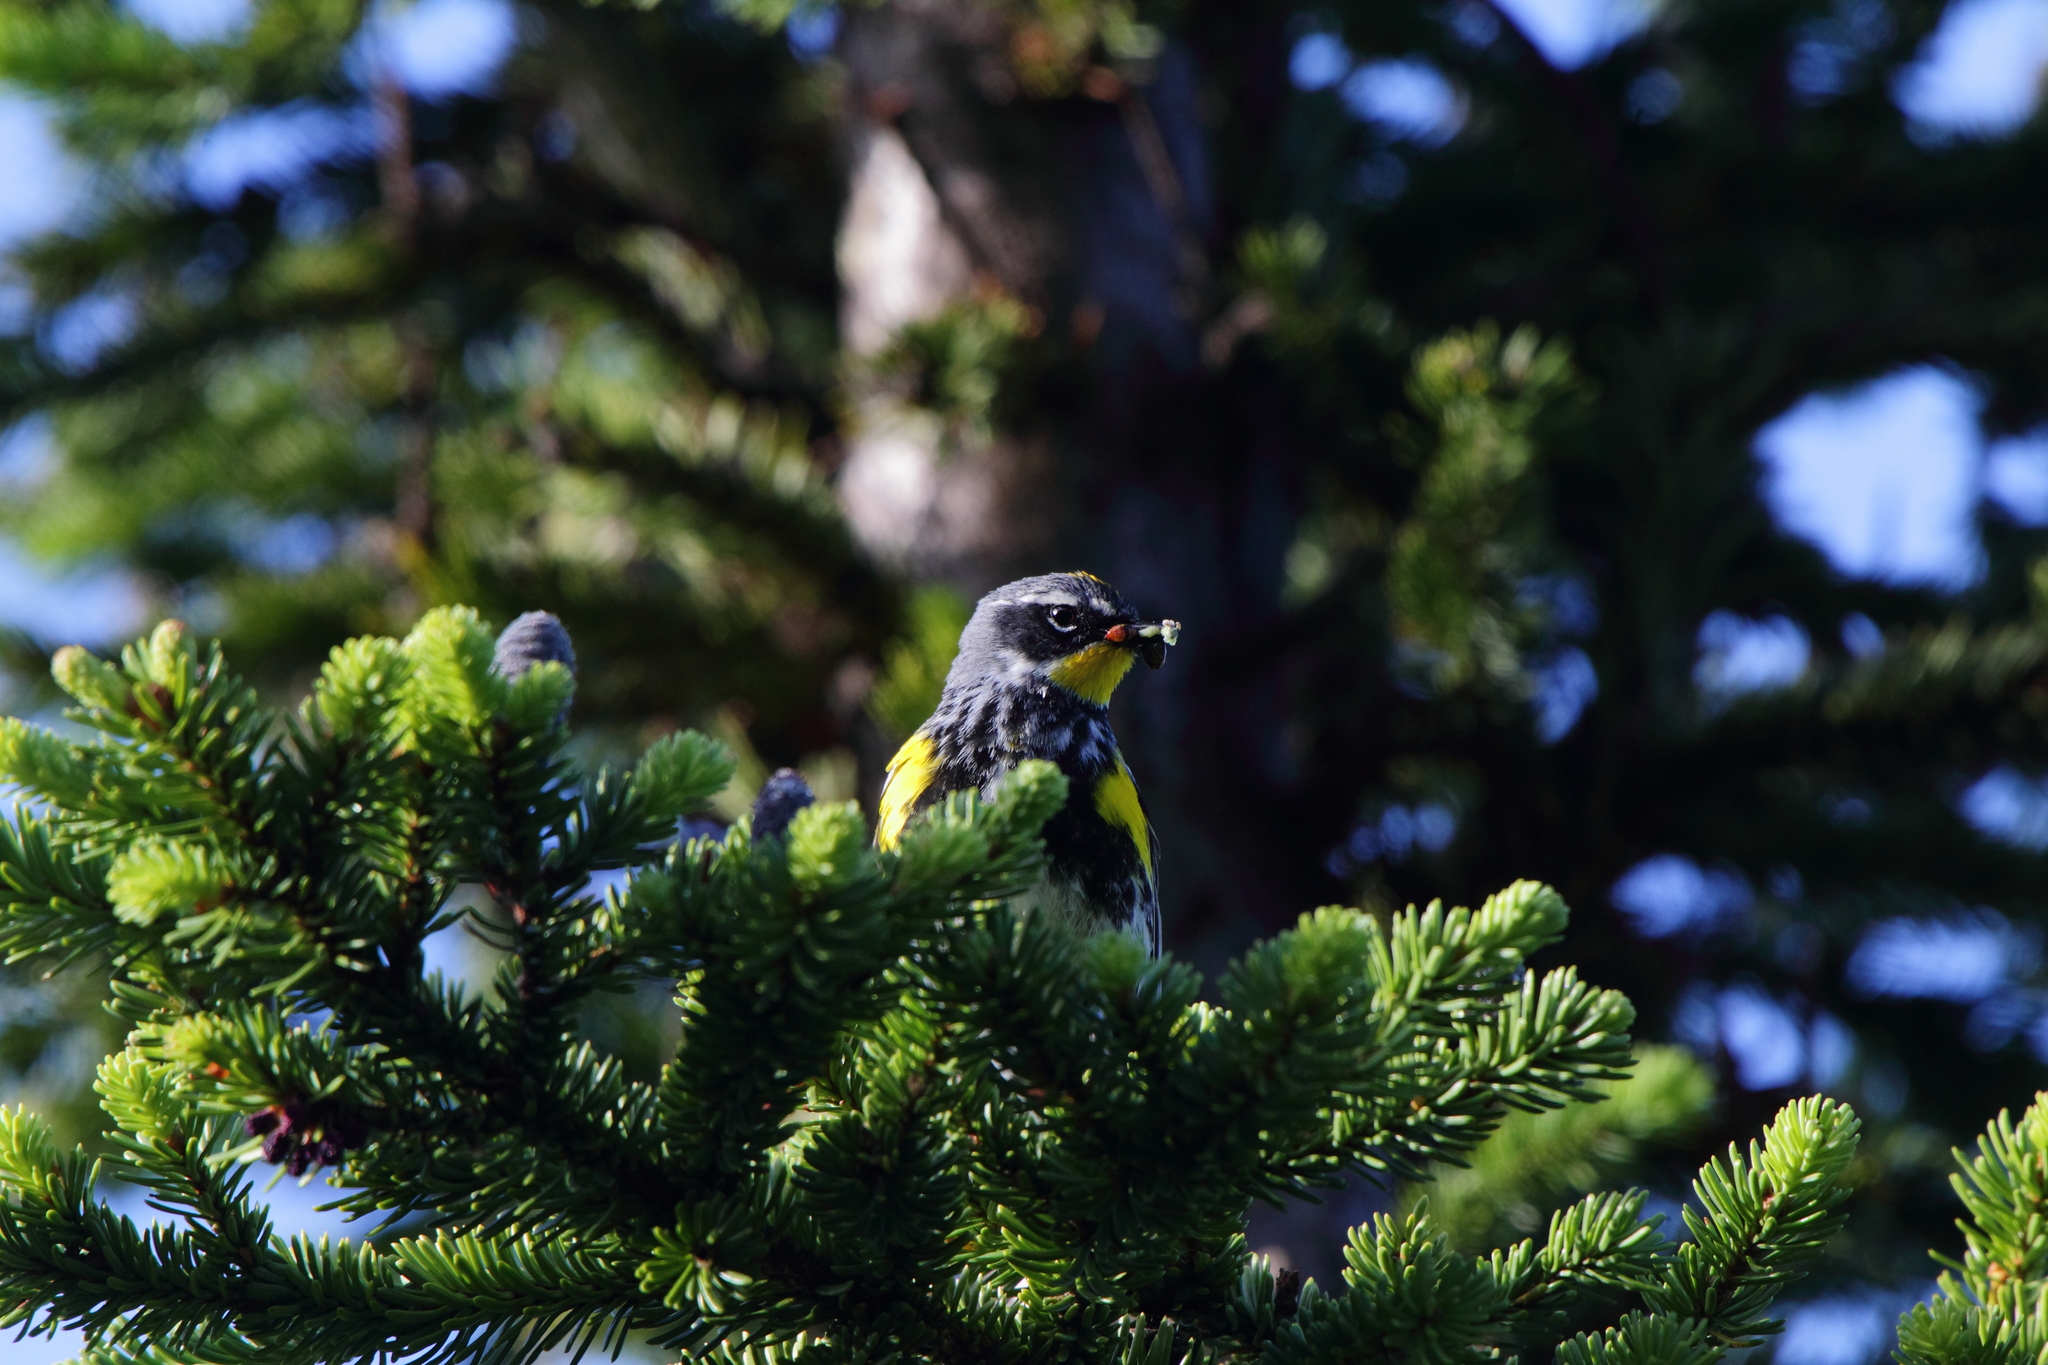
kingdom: Animalia
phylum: Chordata
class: Aves
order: Passeriformes
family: Parulidae
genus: Setophaga
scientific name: Setophaga
